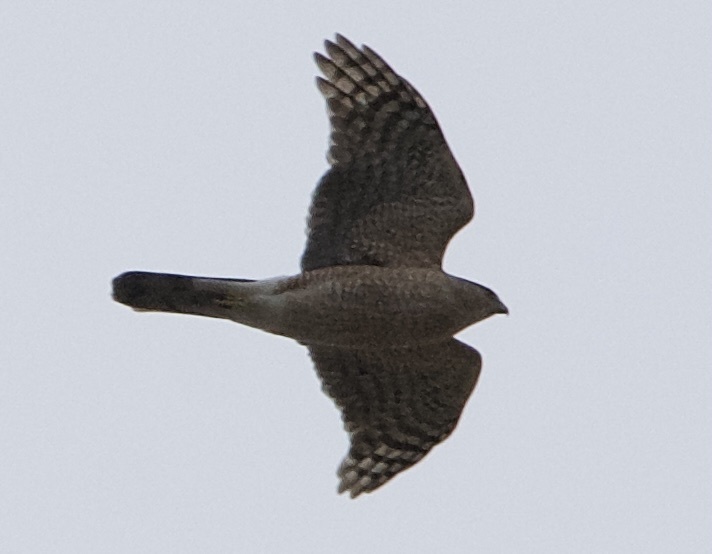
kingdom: Animalia
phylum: Chordata
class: Aves
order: Accipitriformes
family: Accipitridae
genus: Accipiter
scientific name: Accipiter cooperii
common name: Cooper's hawk
